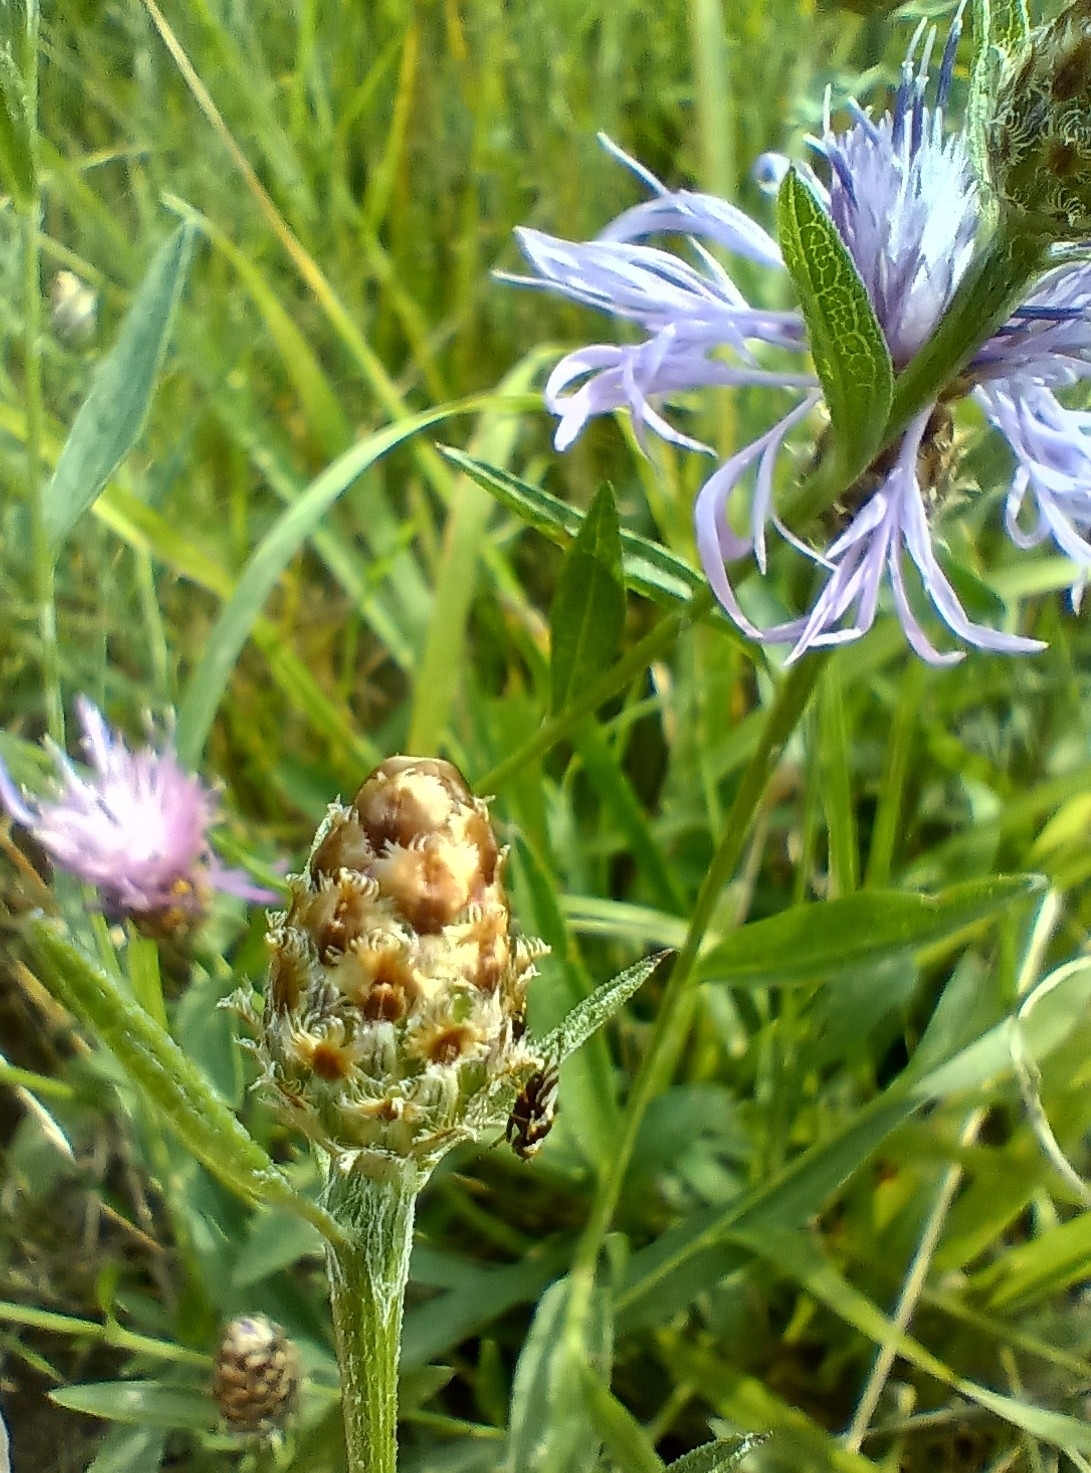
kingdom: Plantae
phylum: Tracheophyta
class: Magnoliopsida
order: Asterales
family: Asteraceae
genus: Centaurea
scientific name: Centaurea fleischeri
